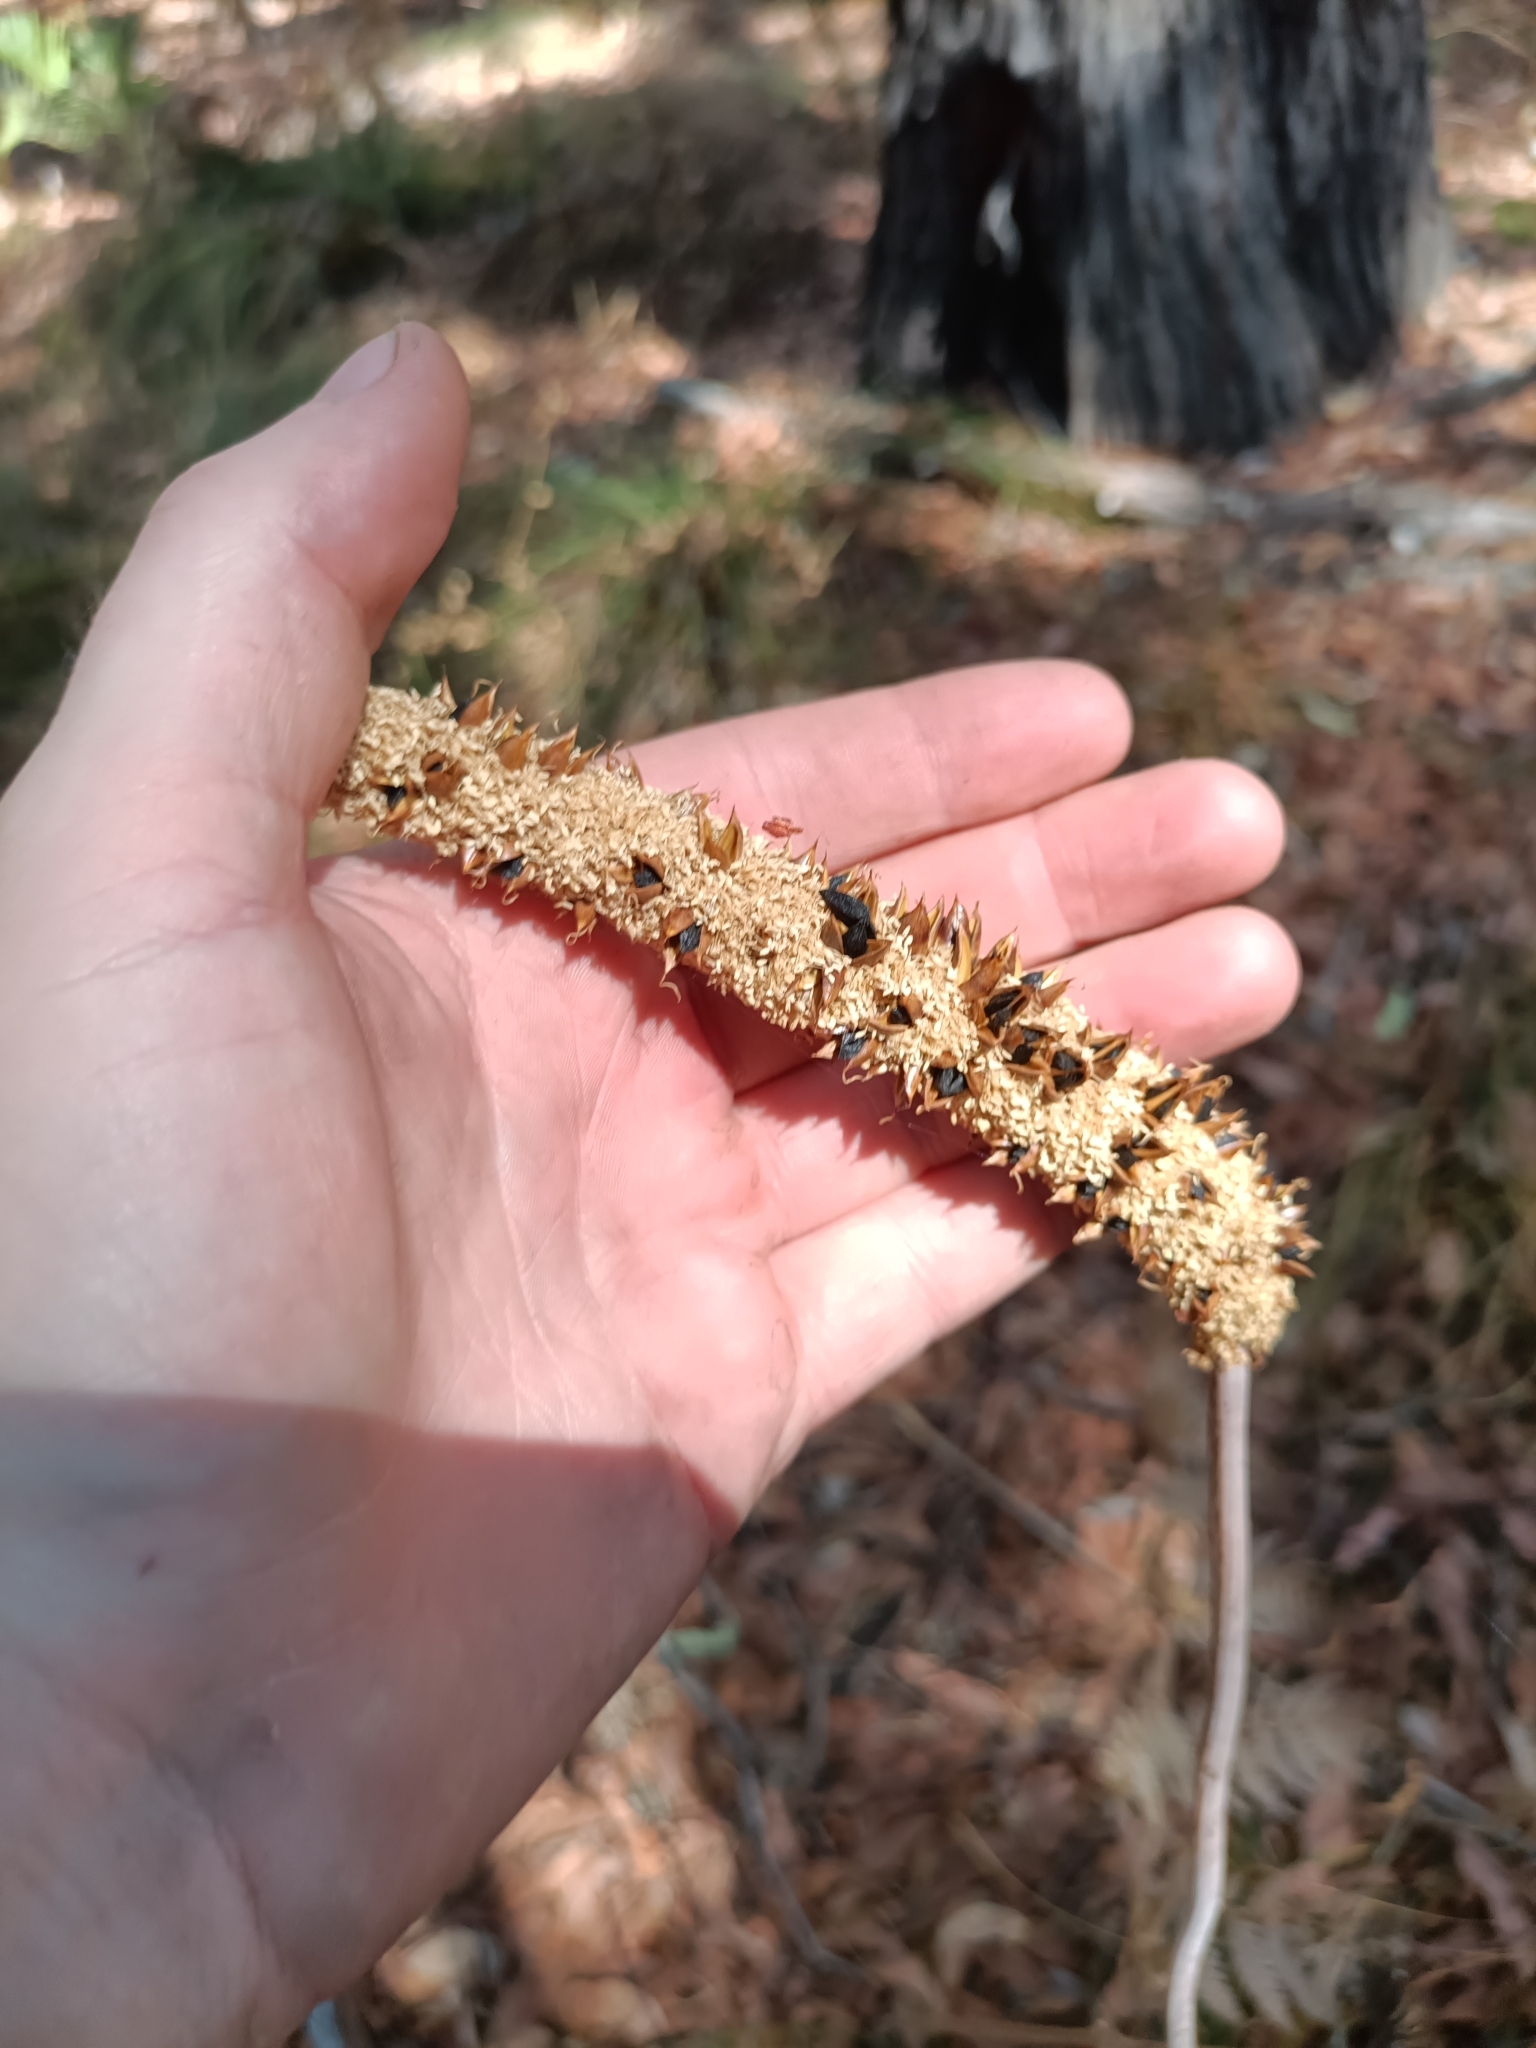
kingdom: Plantae
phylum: Tracheophyta
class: Liliopsida
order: Asparagales
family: Asphodelaceae
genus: Xanthorrhoea
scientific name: Xanthorrhoea gracilis
